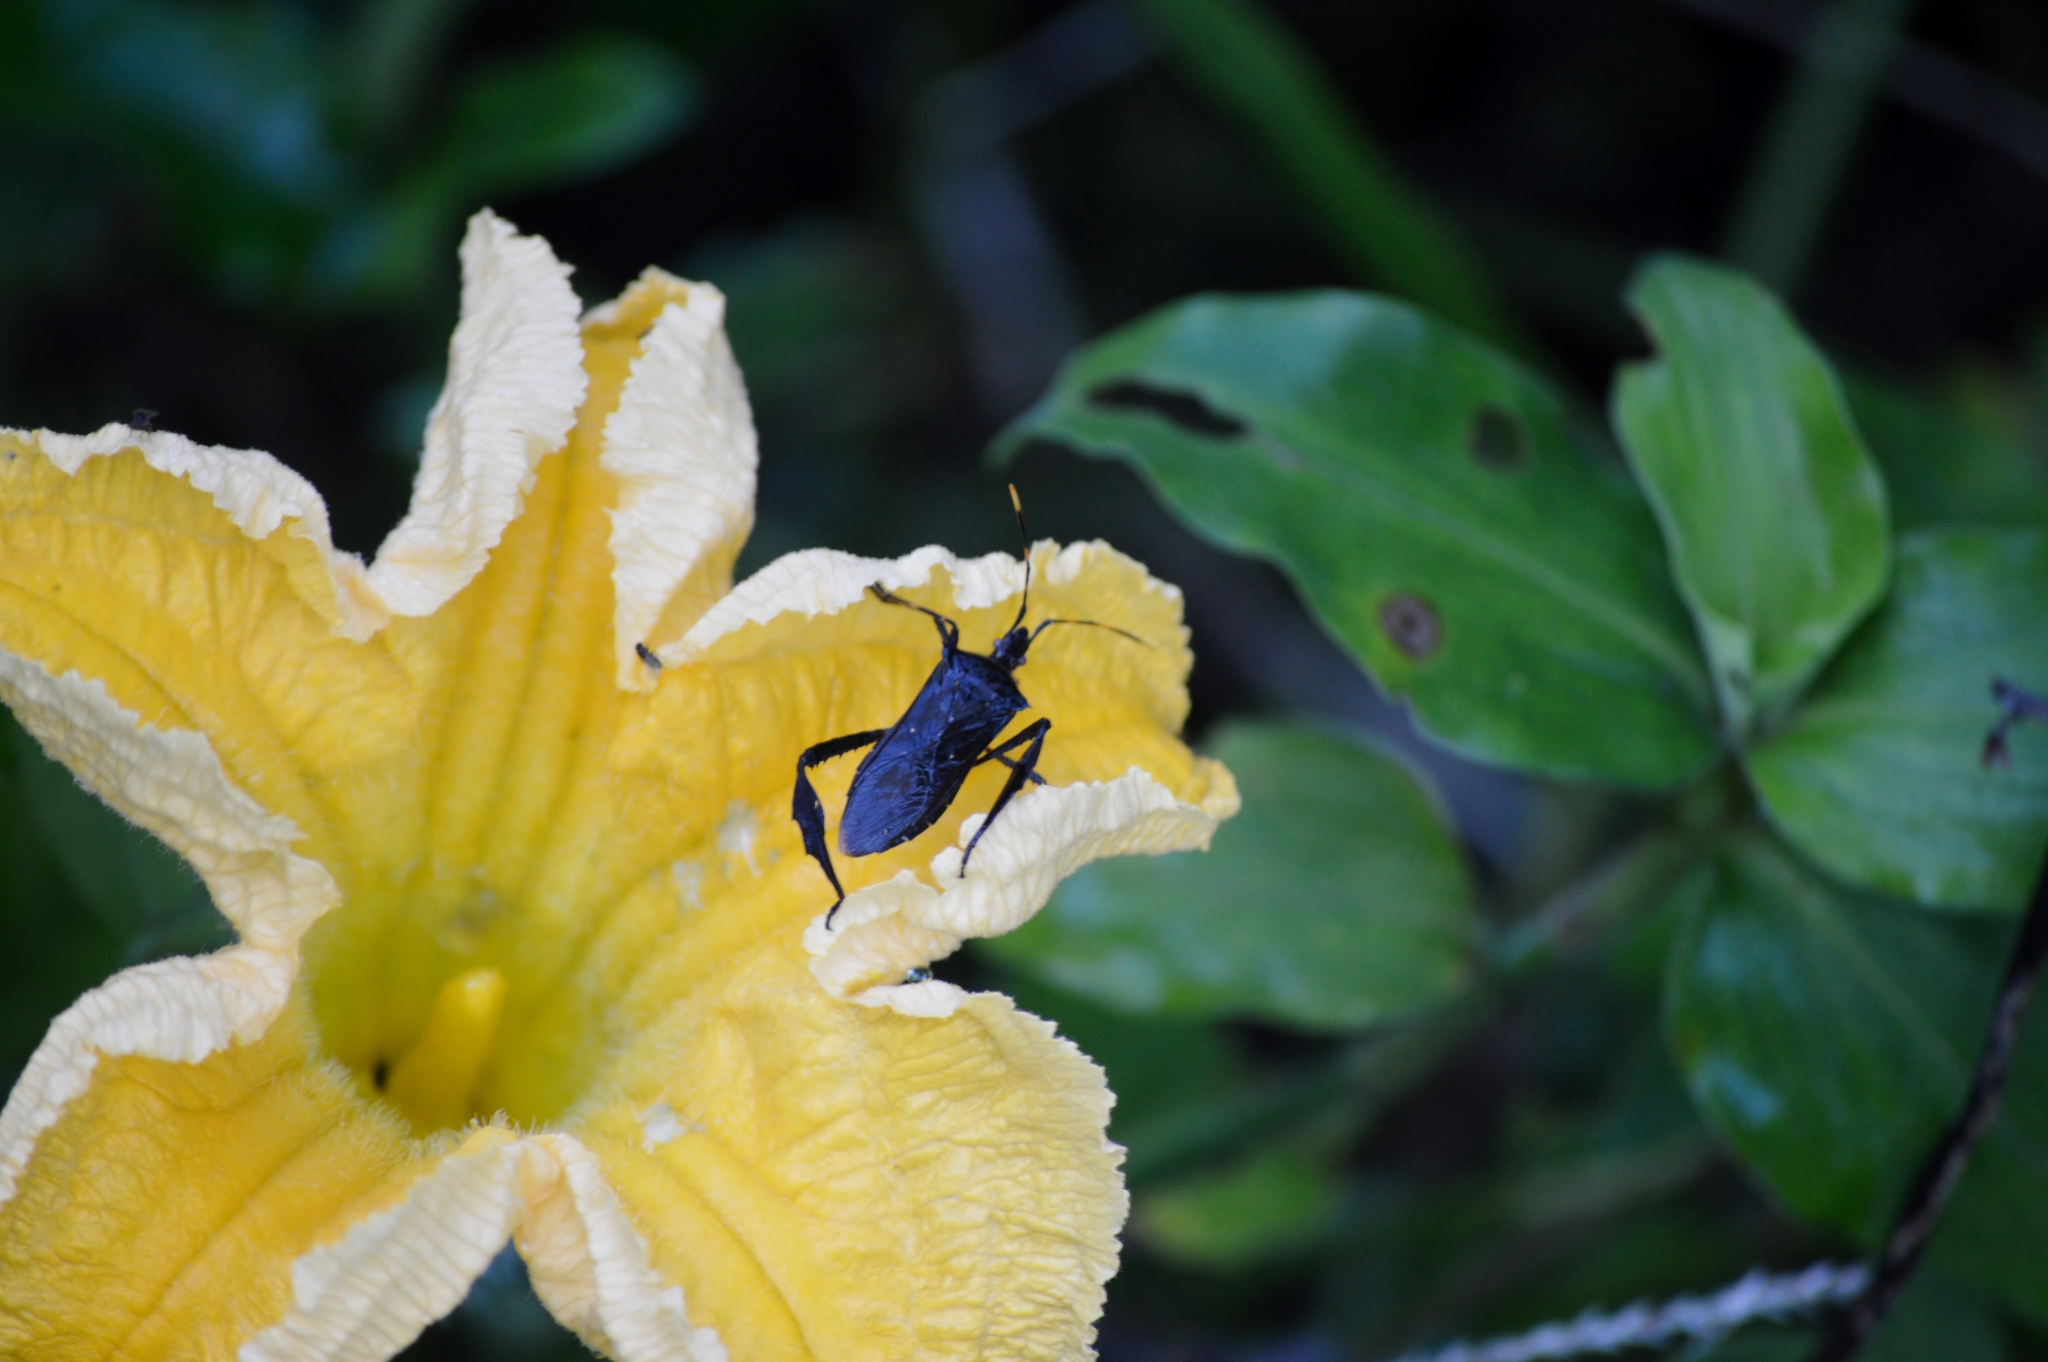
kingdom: Animalia
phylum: Arthropoda
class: Insecta
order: Hemiptera
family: Coreidae
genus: Leptoglossus
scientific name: Leptoglossus gonagra
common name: Citron bug
